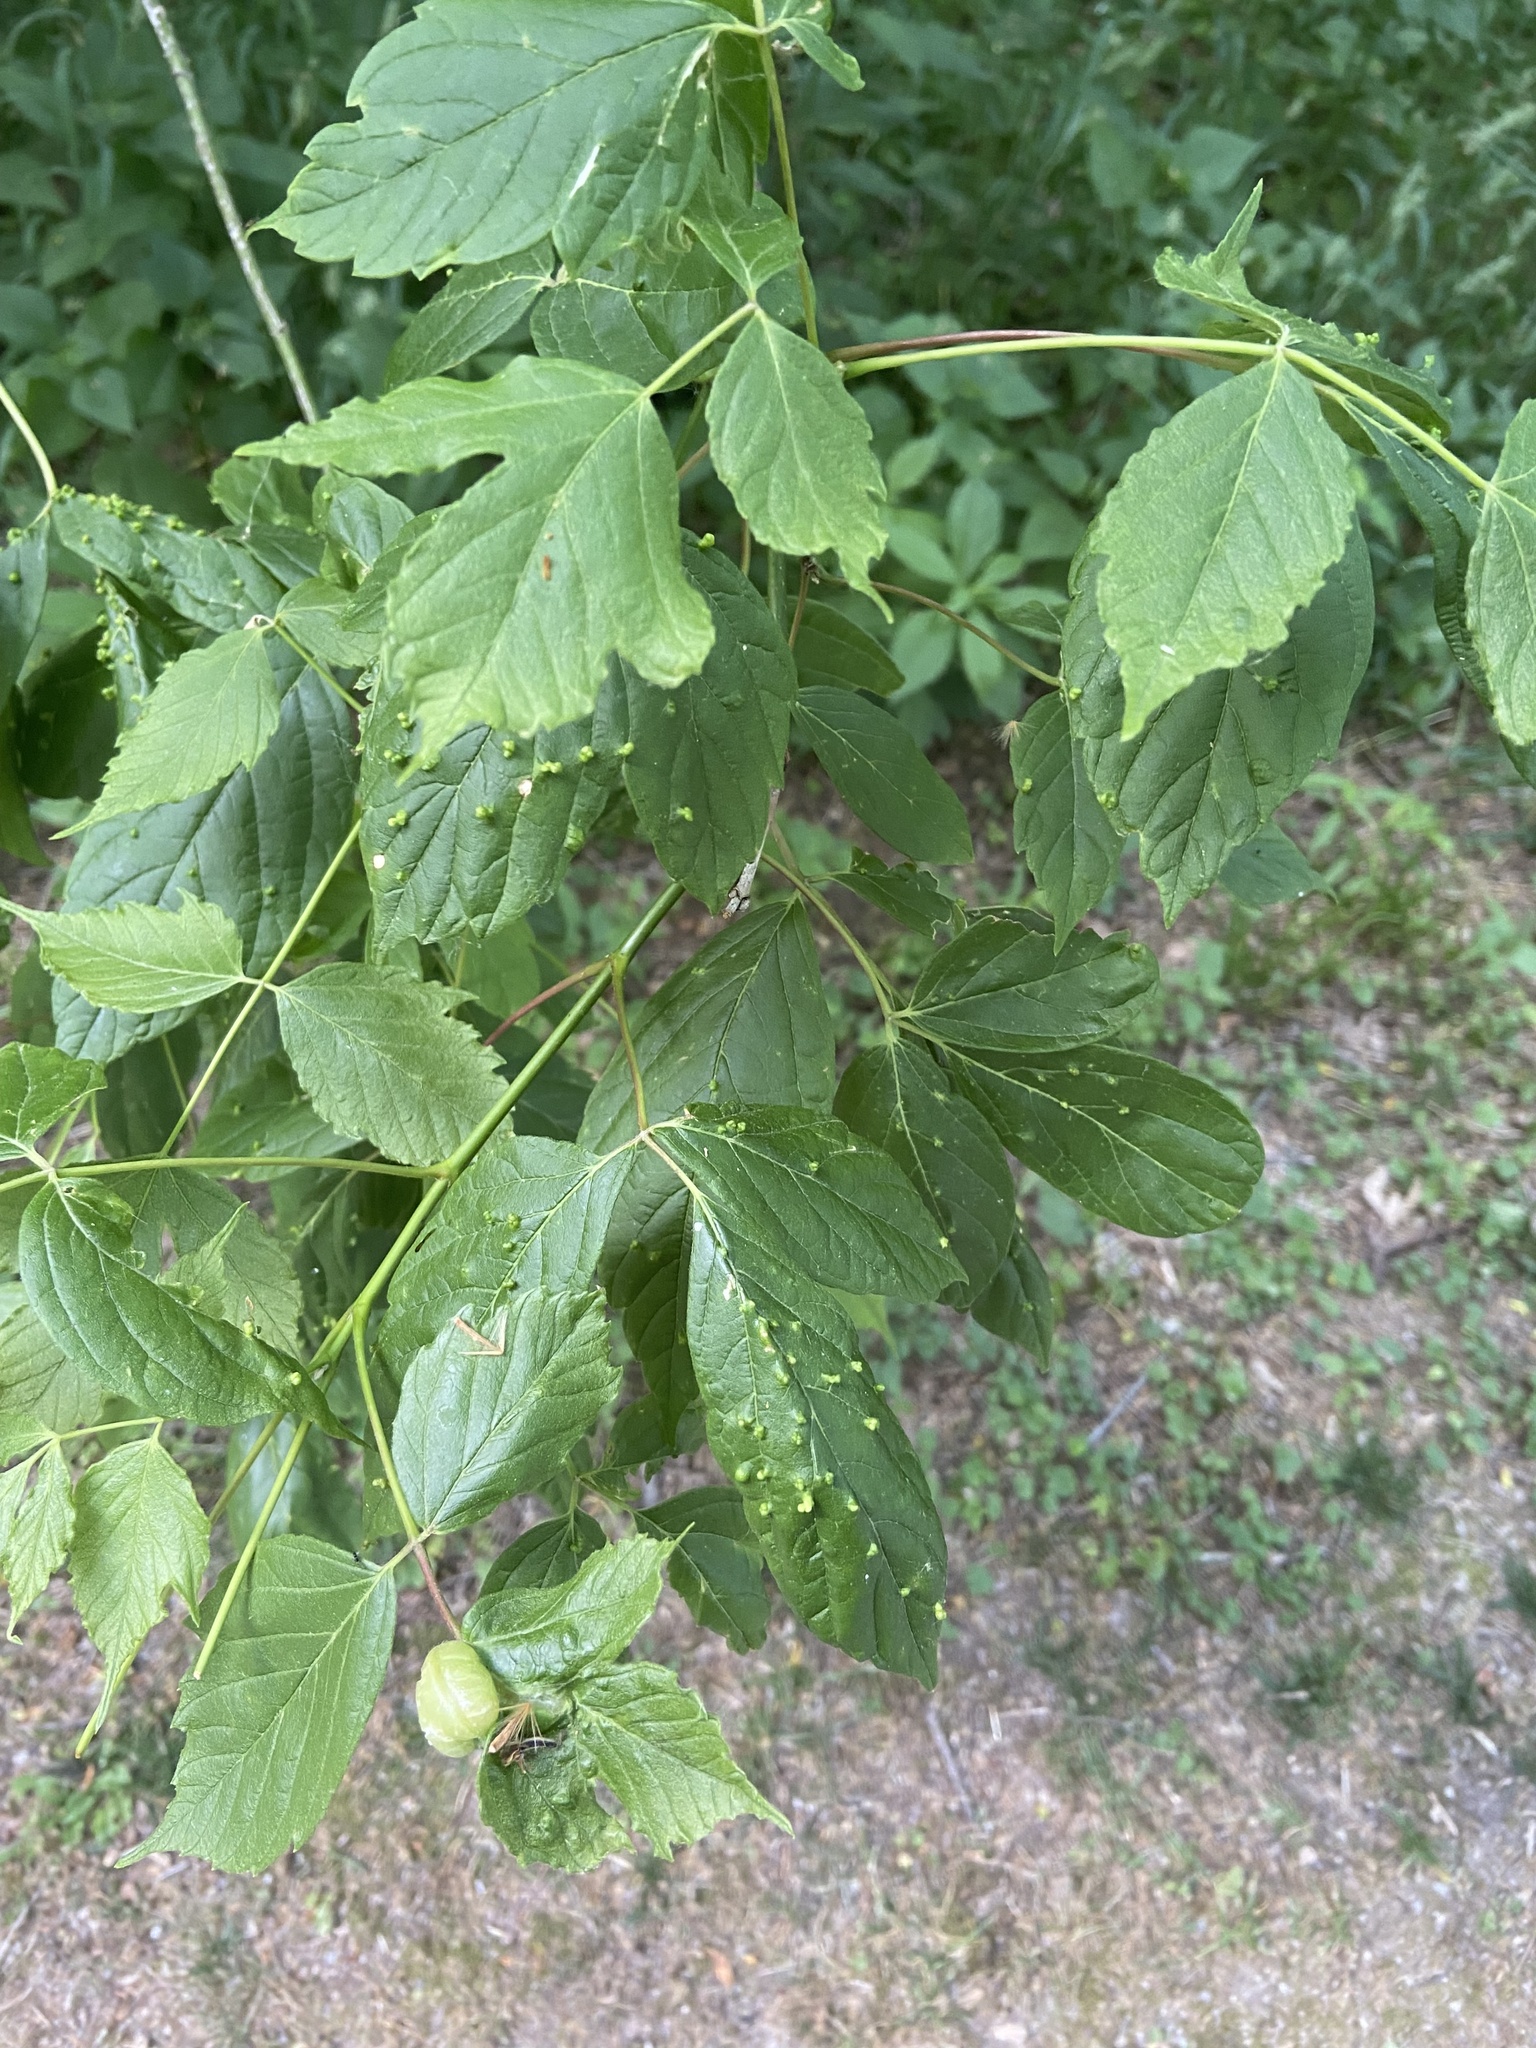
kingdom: Animalia
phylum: Arthropoda
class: Insecta
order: Diptera
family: Cecidomyiidae
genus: Contarinia
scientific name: Contarinia negundinis
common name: Boxelder budgall midge
